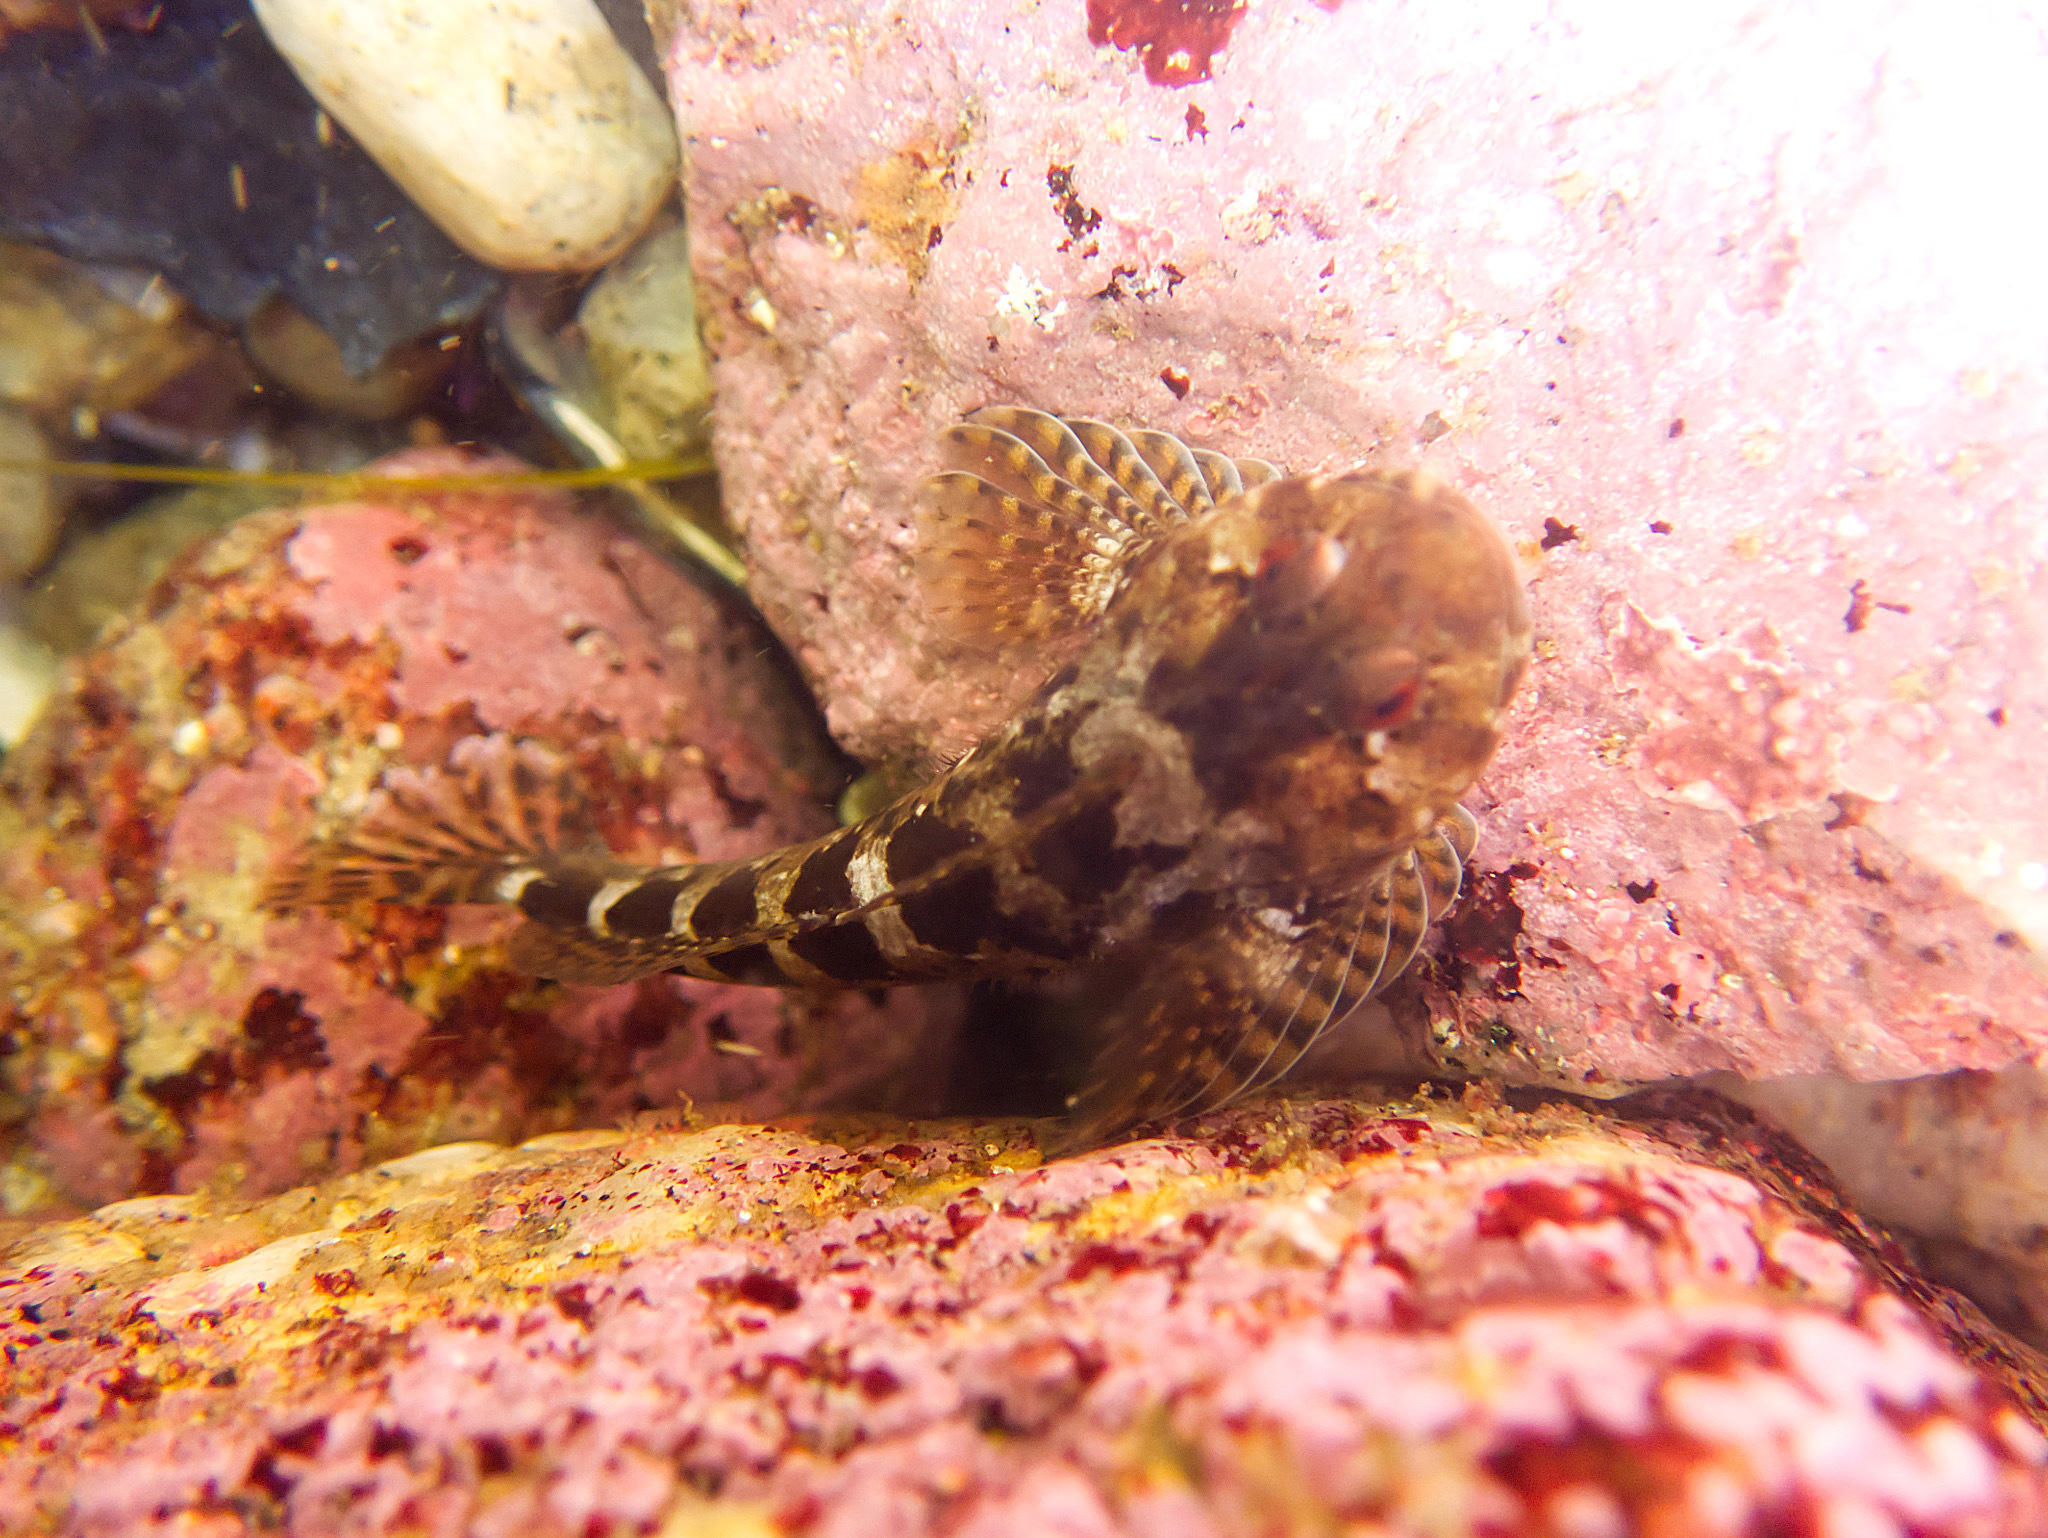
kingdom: Animalia
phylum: Chordata
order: Scorpaeniformes
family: Cottidae
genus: Clinocottus
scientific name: Clinocottus recalvus
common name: Bald sculpin
